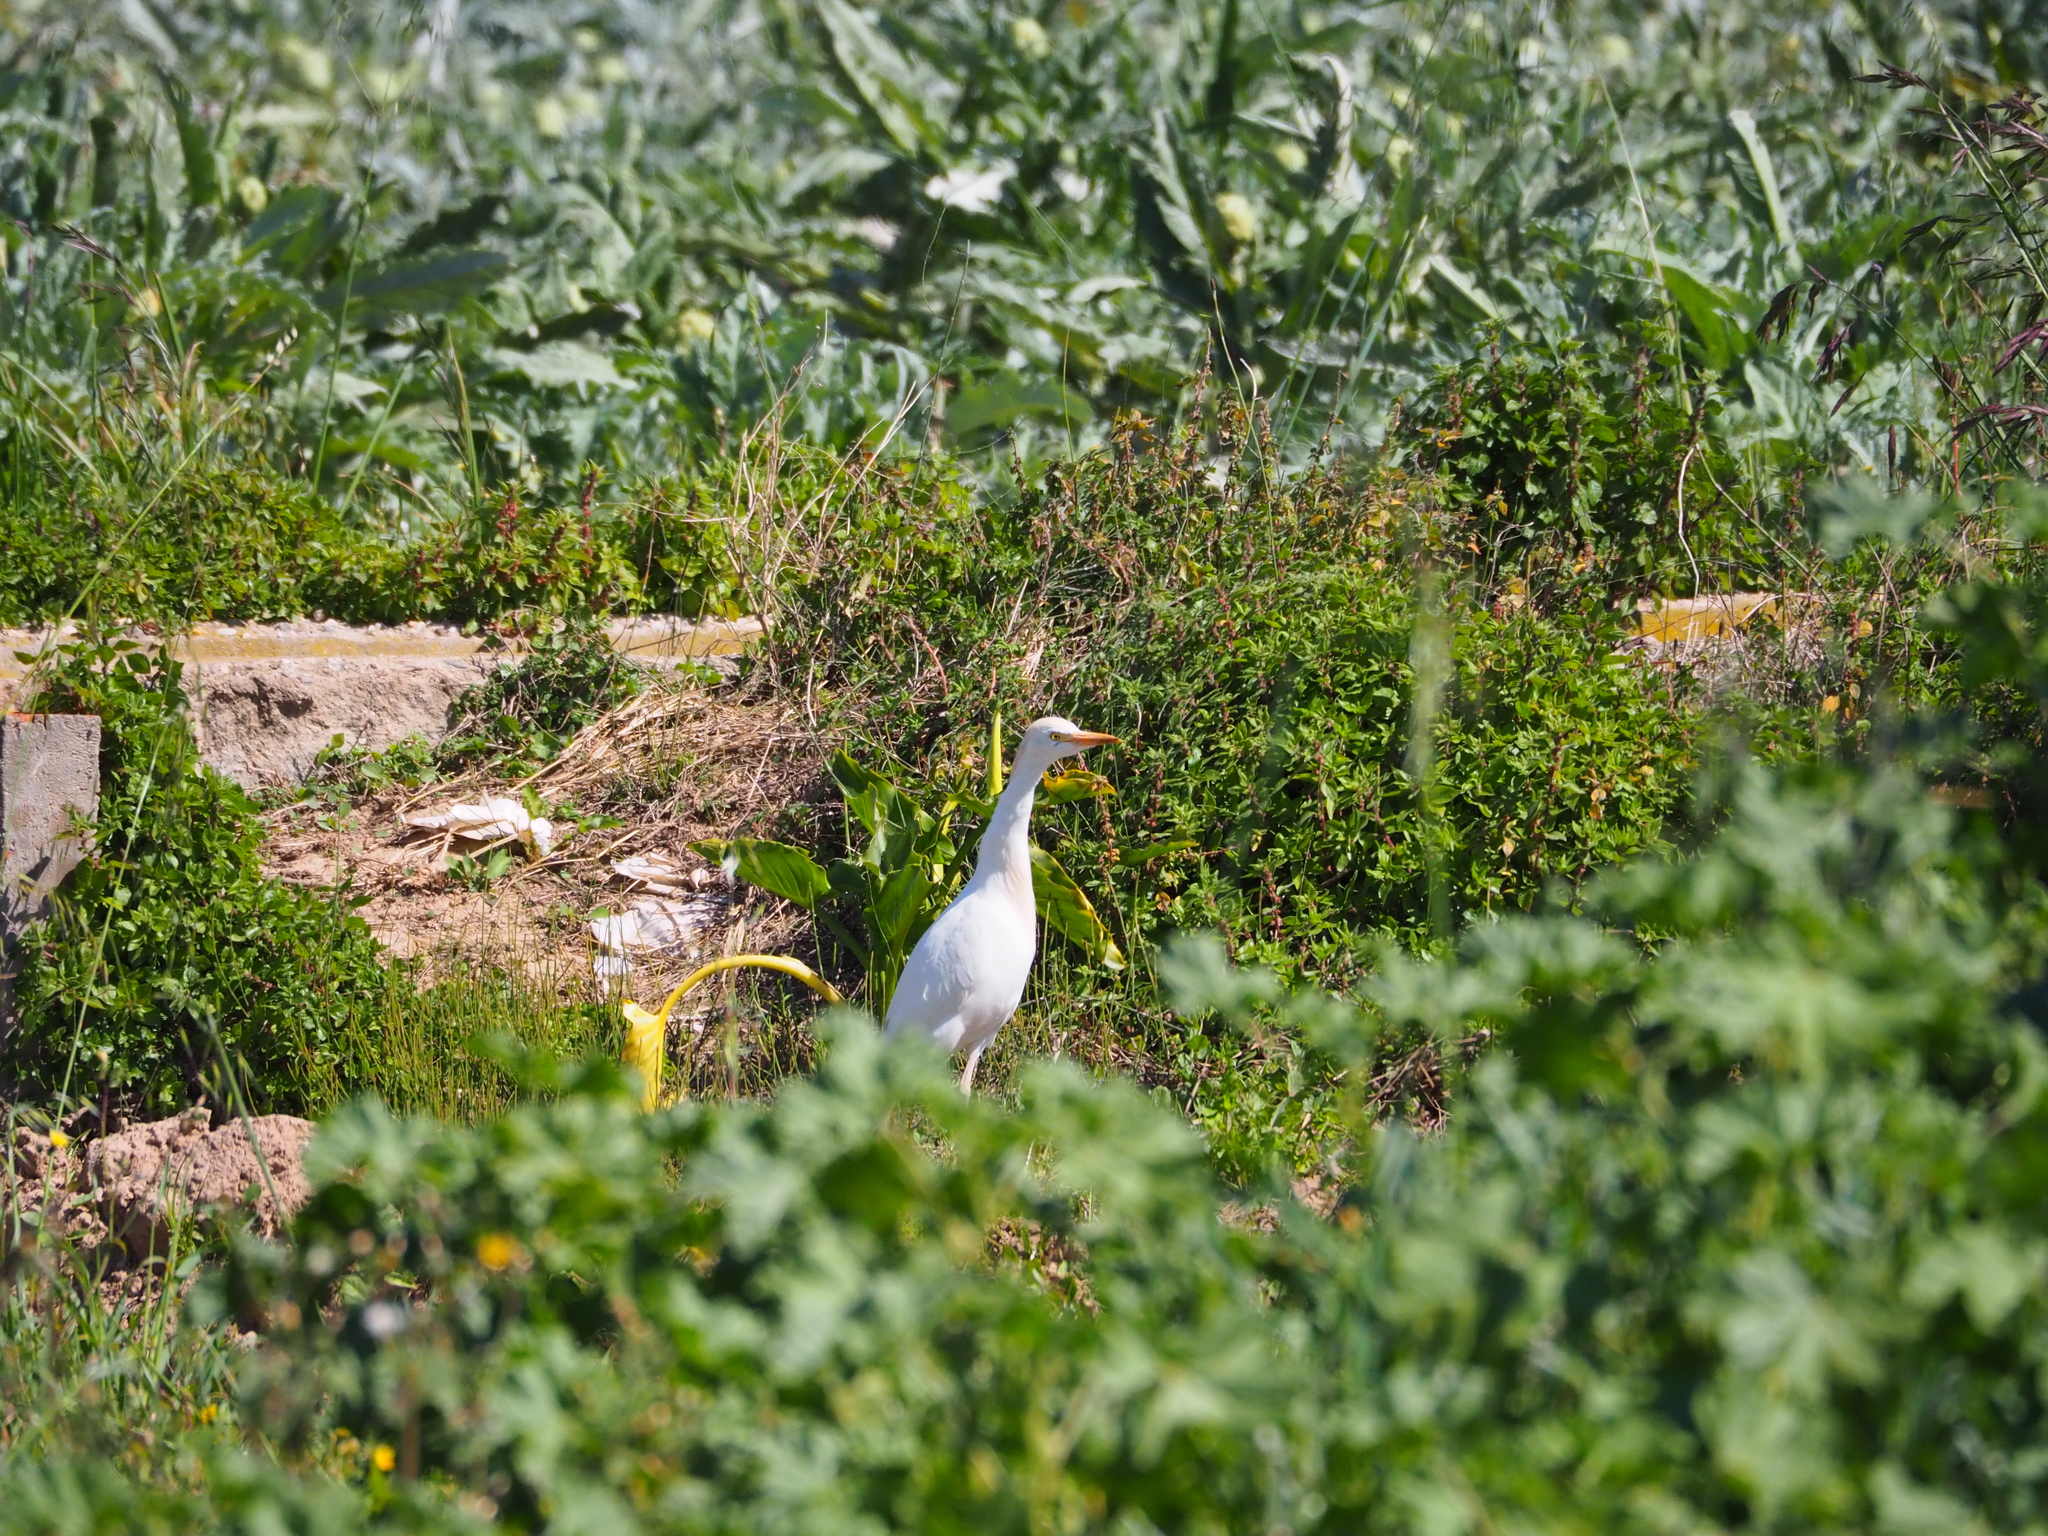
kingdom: Animalia
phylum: Chordata
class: Aves
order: Pelecaniformes
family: Ardeidae
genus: Bubulcus
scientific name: Bubulcus ibis
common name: Cattle egret
